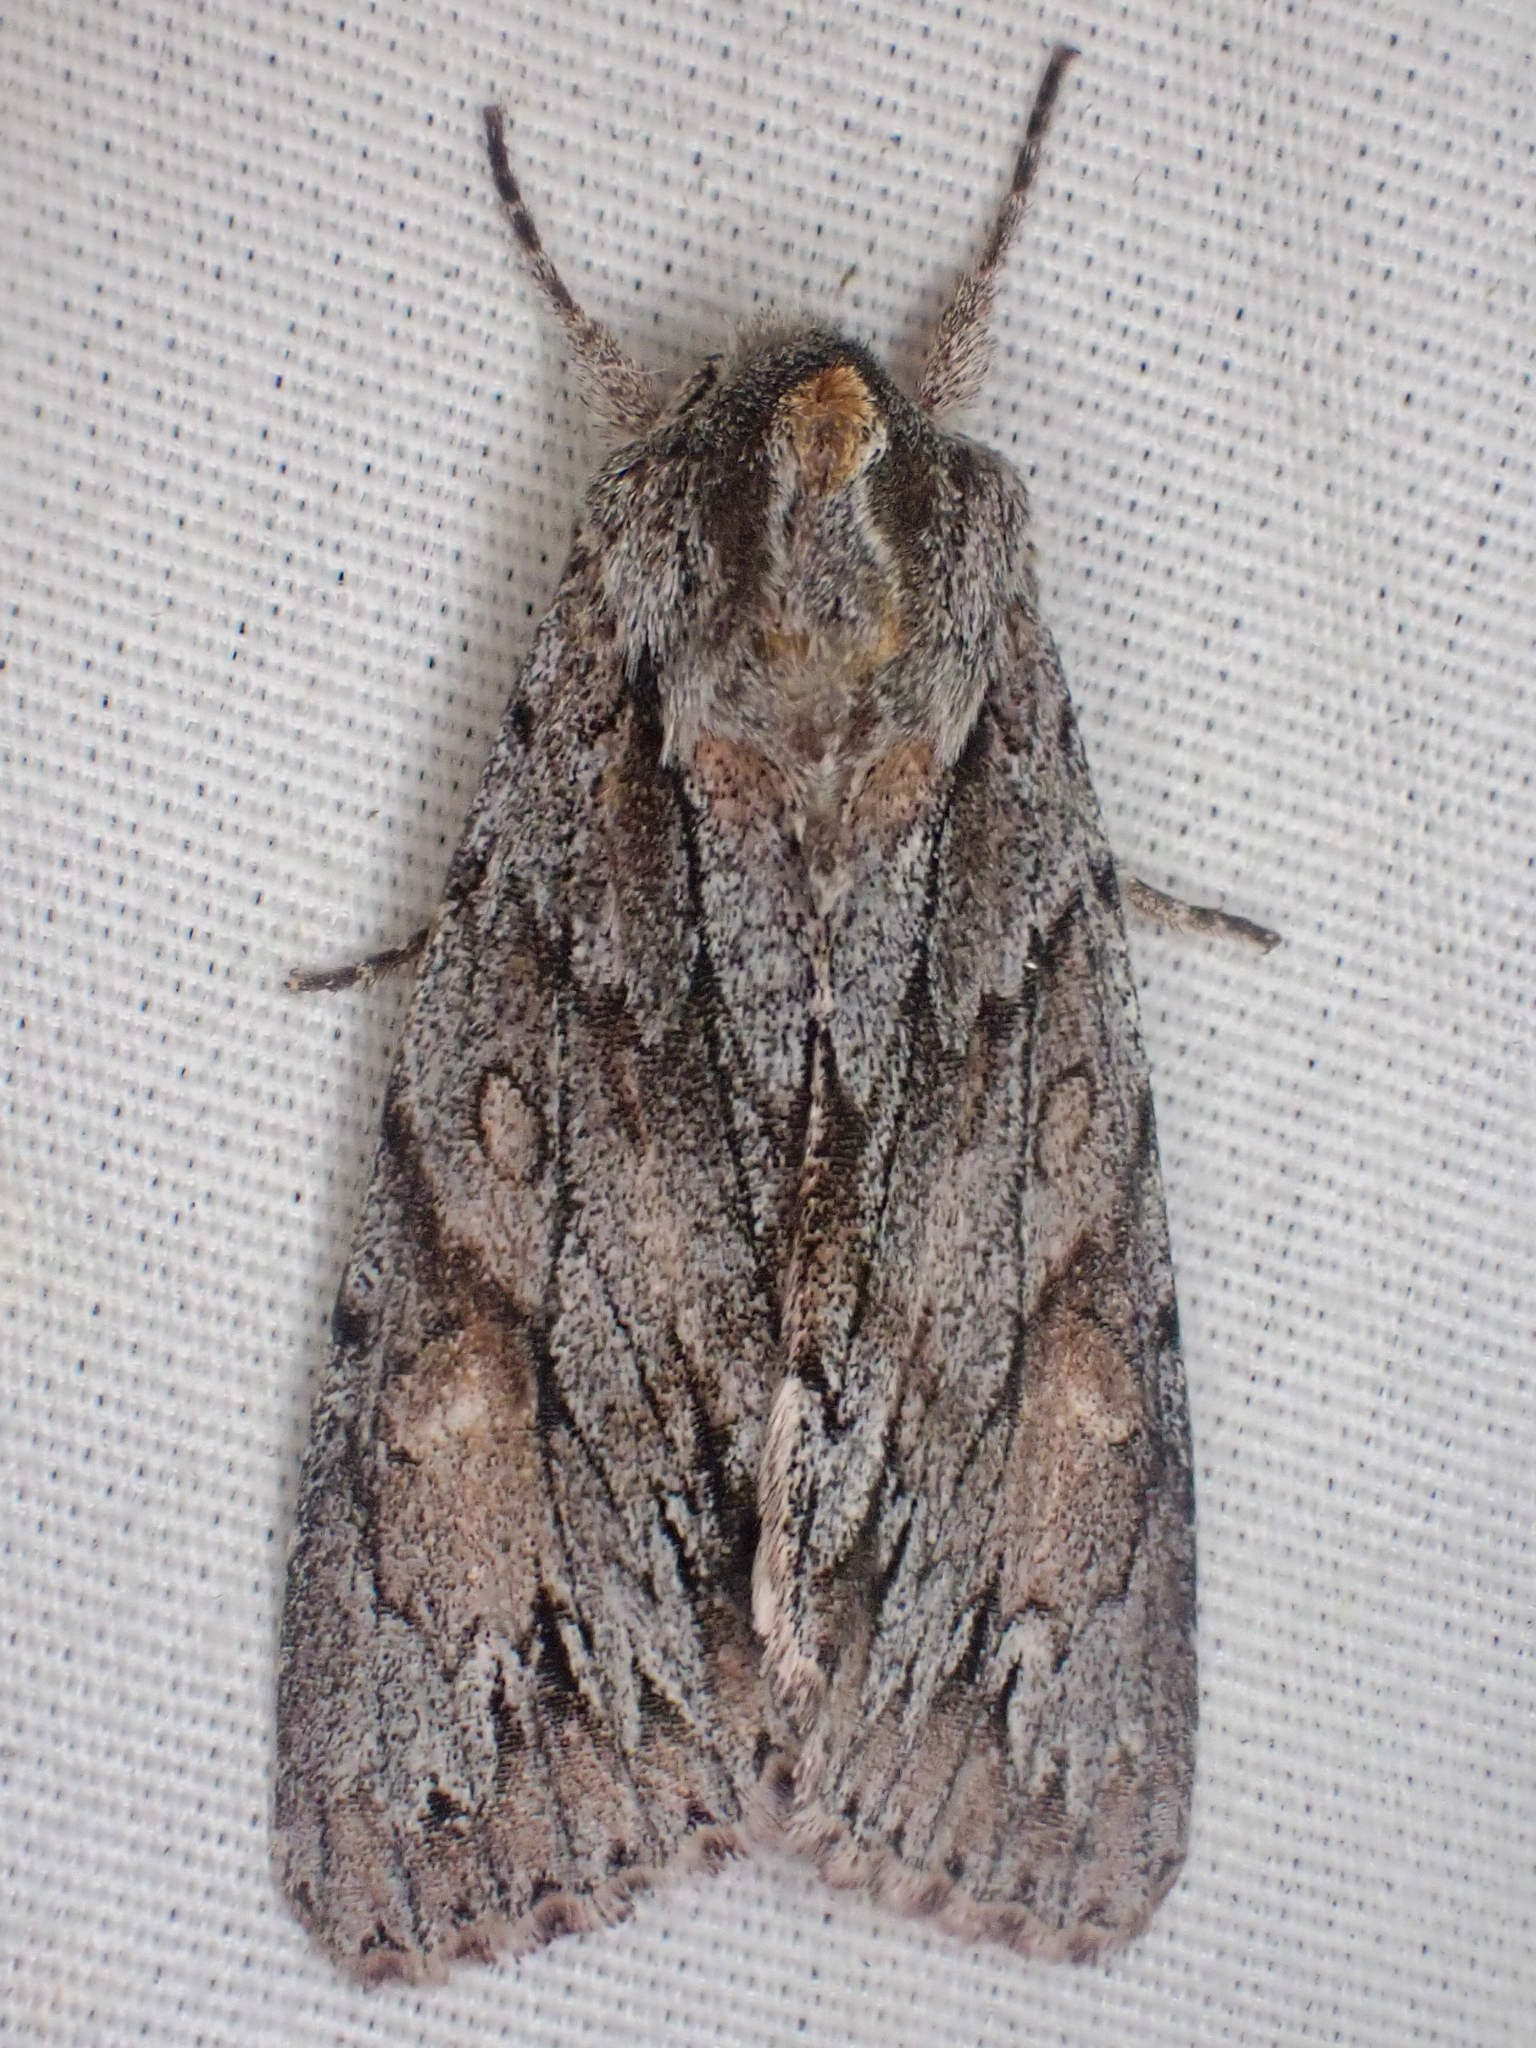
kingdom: Animalia
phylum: Arthropoda
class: Insecta
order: Lepidoptera
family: Noctuidae
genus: Andropolia
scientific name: Andropolia theodori
